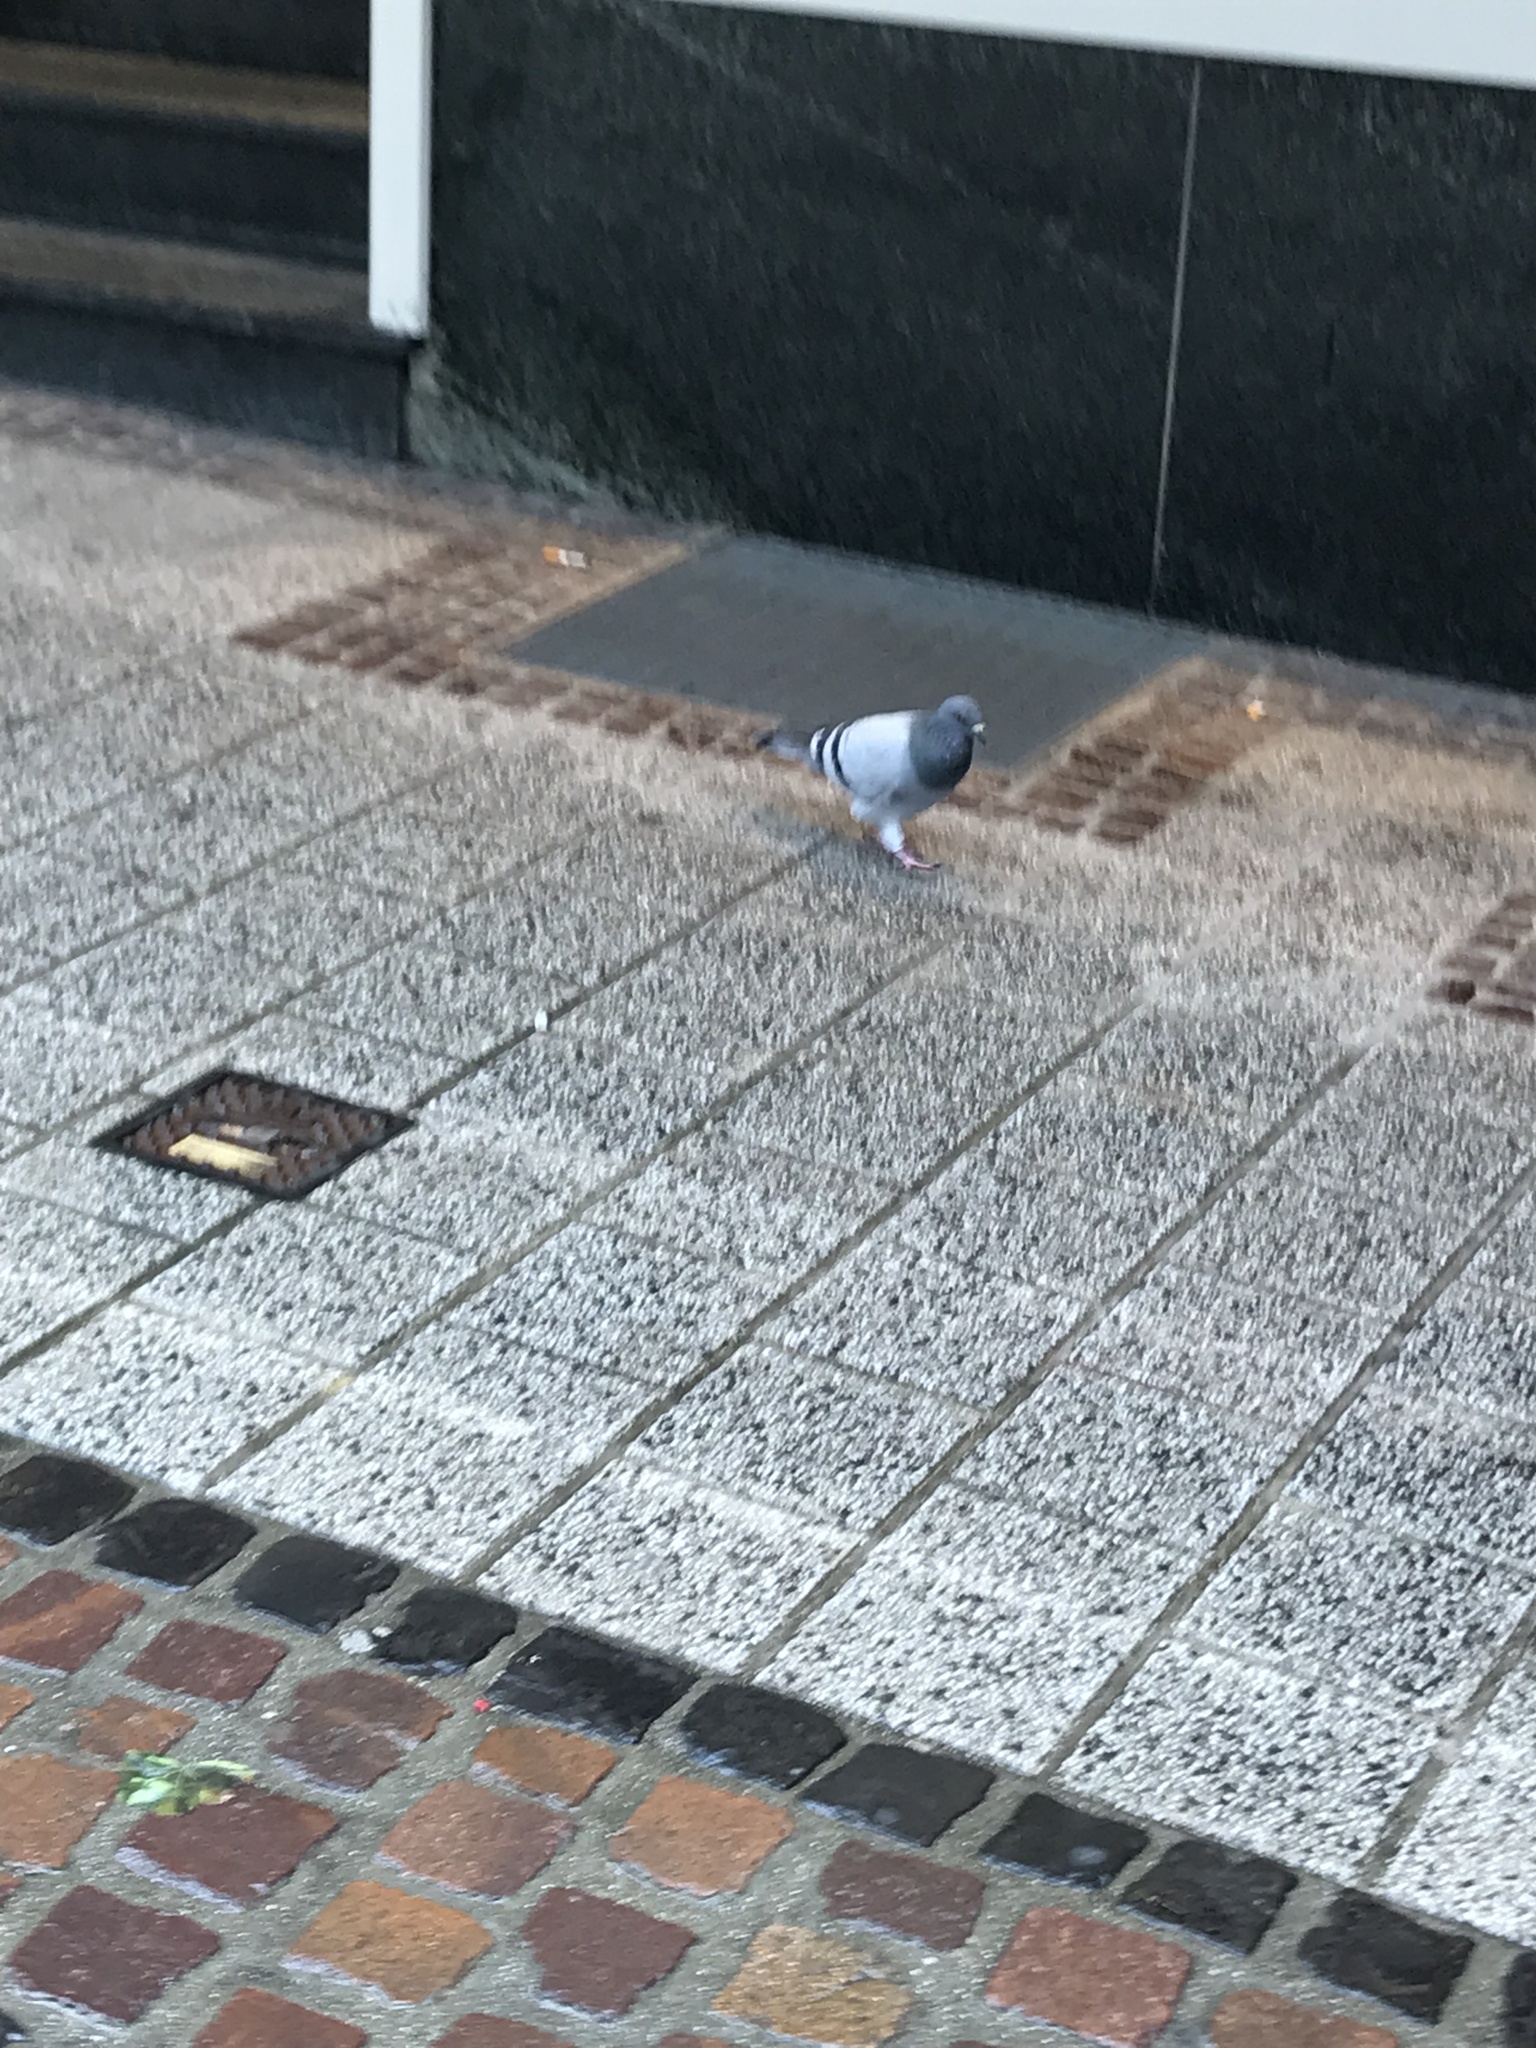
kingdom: Animalia
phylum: Chordata
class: Aves
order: Columbiformes
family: Columbidae
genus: Columba
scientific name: Columba livia
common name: Rock pigeon
